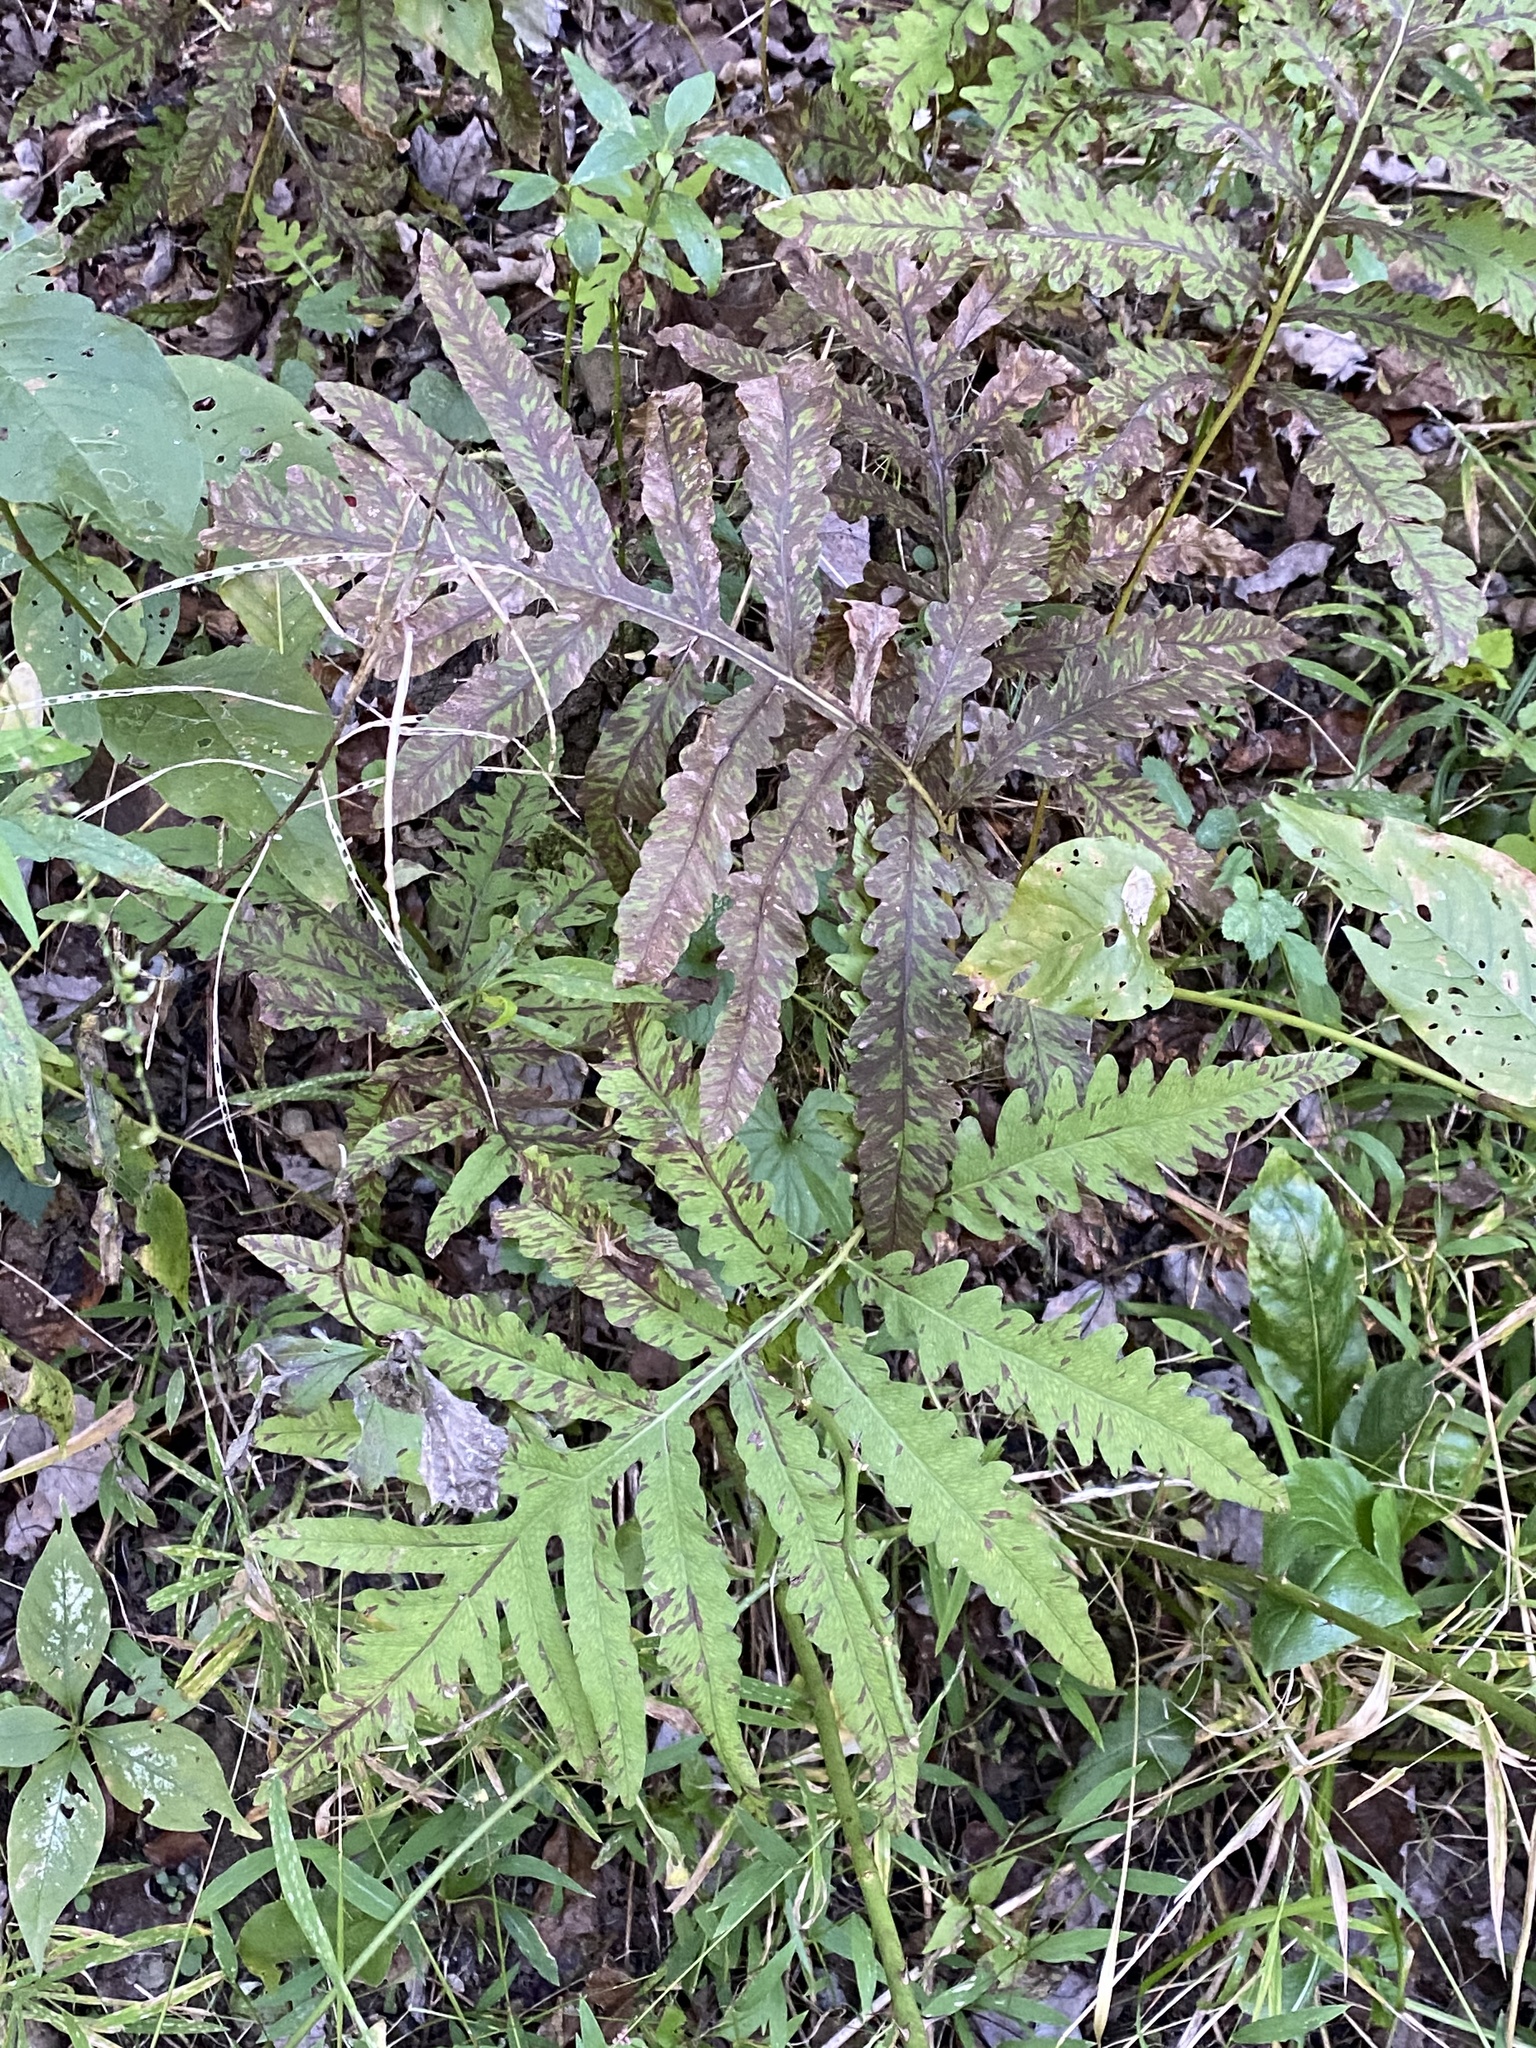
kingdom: Plantae
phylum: Tracheophyta
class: Polypodiopsida
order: Polypodiales
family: Onocleaceae
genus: Onoclea
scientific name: Onoclea sensibilis
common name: Sensitive fern
